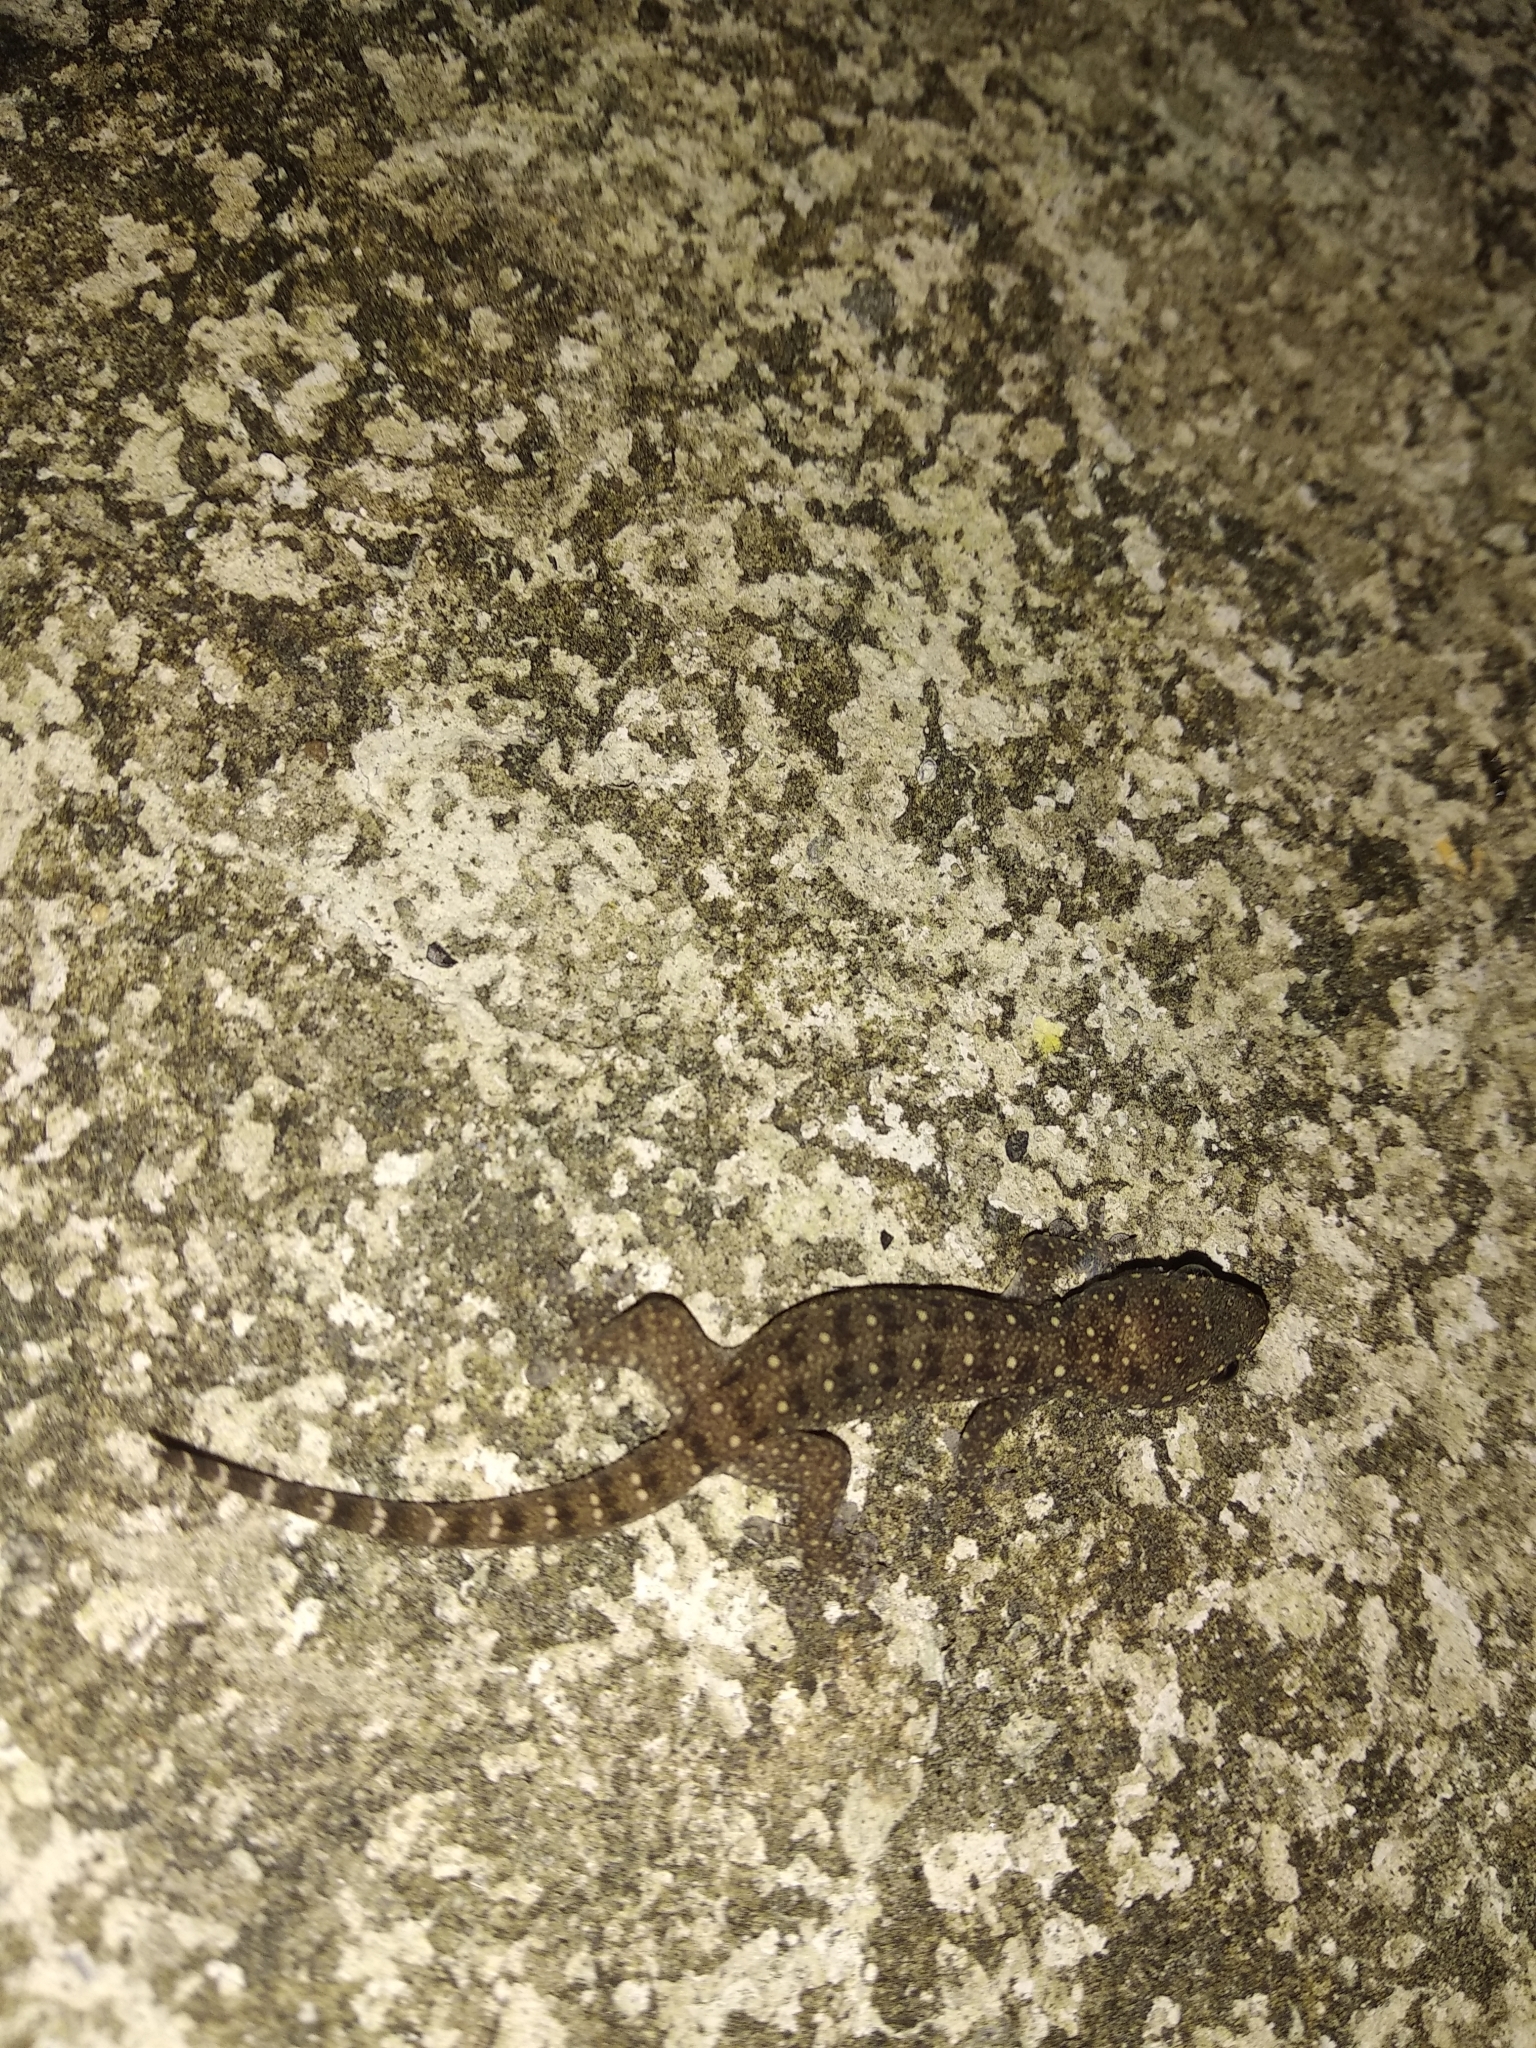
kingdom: Animalia
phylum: Chordata
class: Squamata
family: Gekkonidae
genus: Gehyra
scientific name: Gehyra mutilata
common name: Stump-toed gecko
